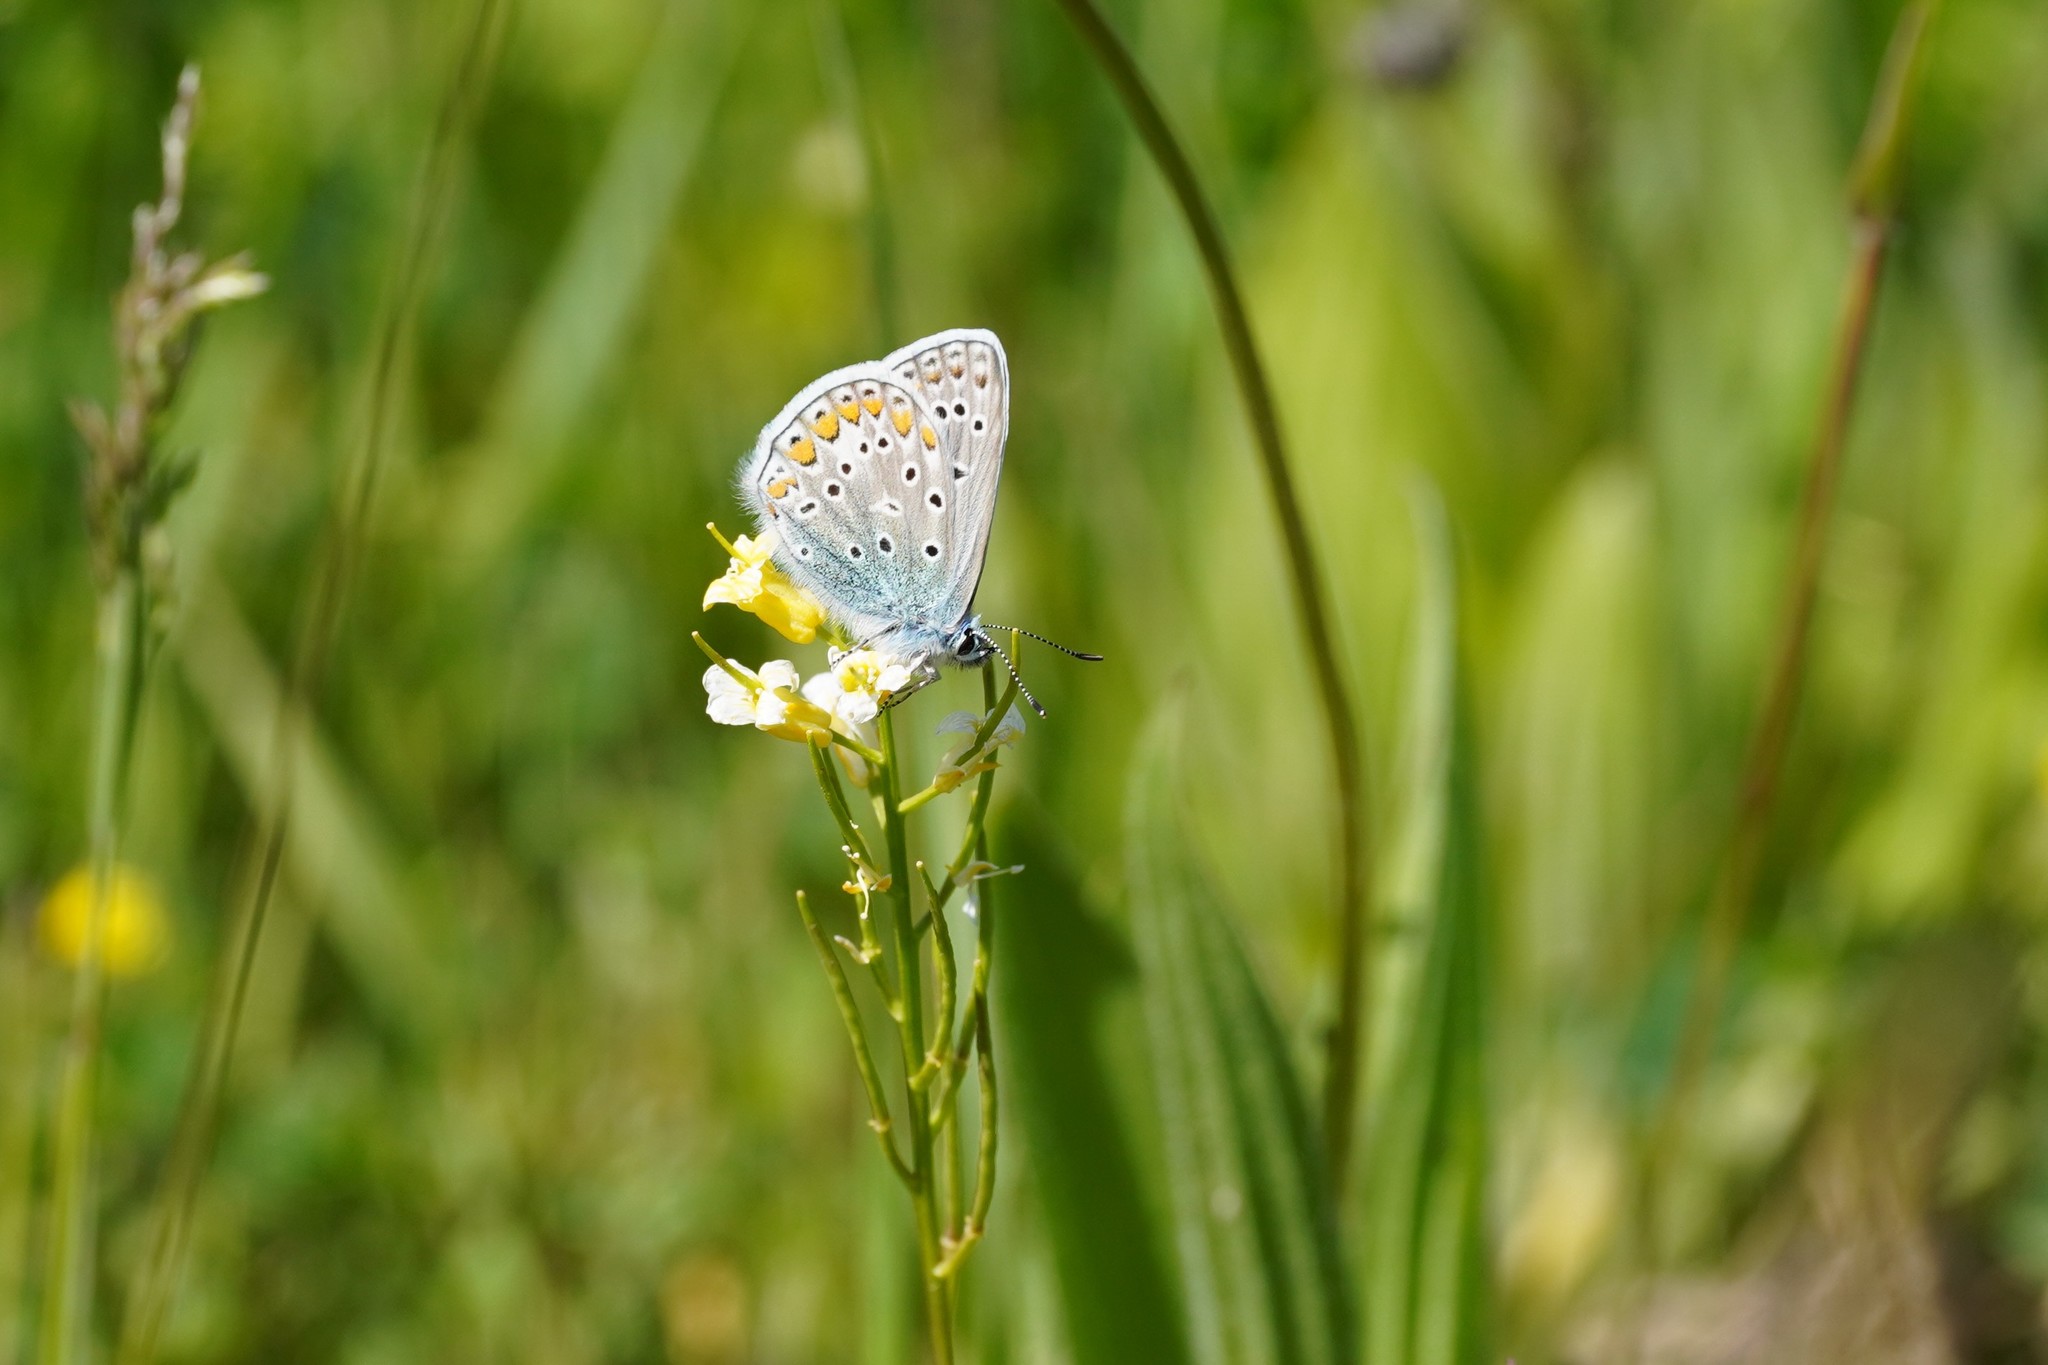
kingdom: Animalia
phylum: Arthropoda
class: Insecta
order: Lepidoptera
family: Lycaenidae
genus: Polyommatus
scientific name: Polyommatus icarus
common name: Common blue
